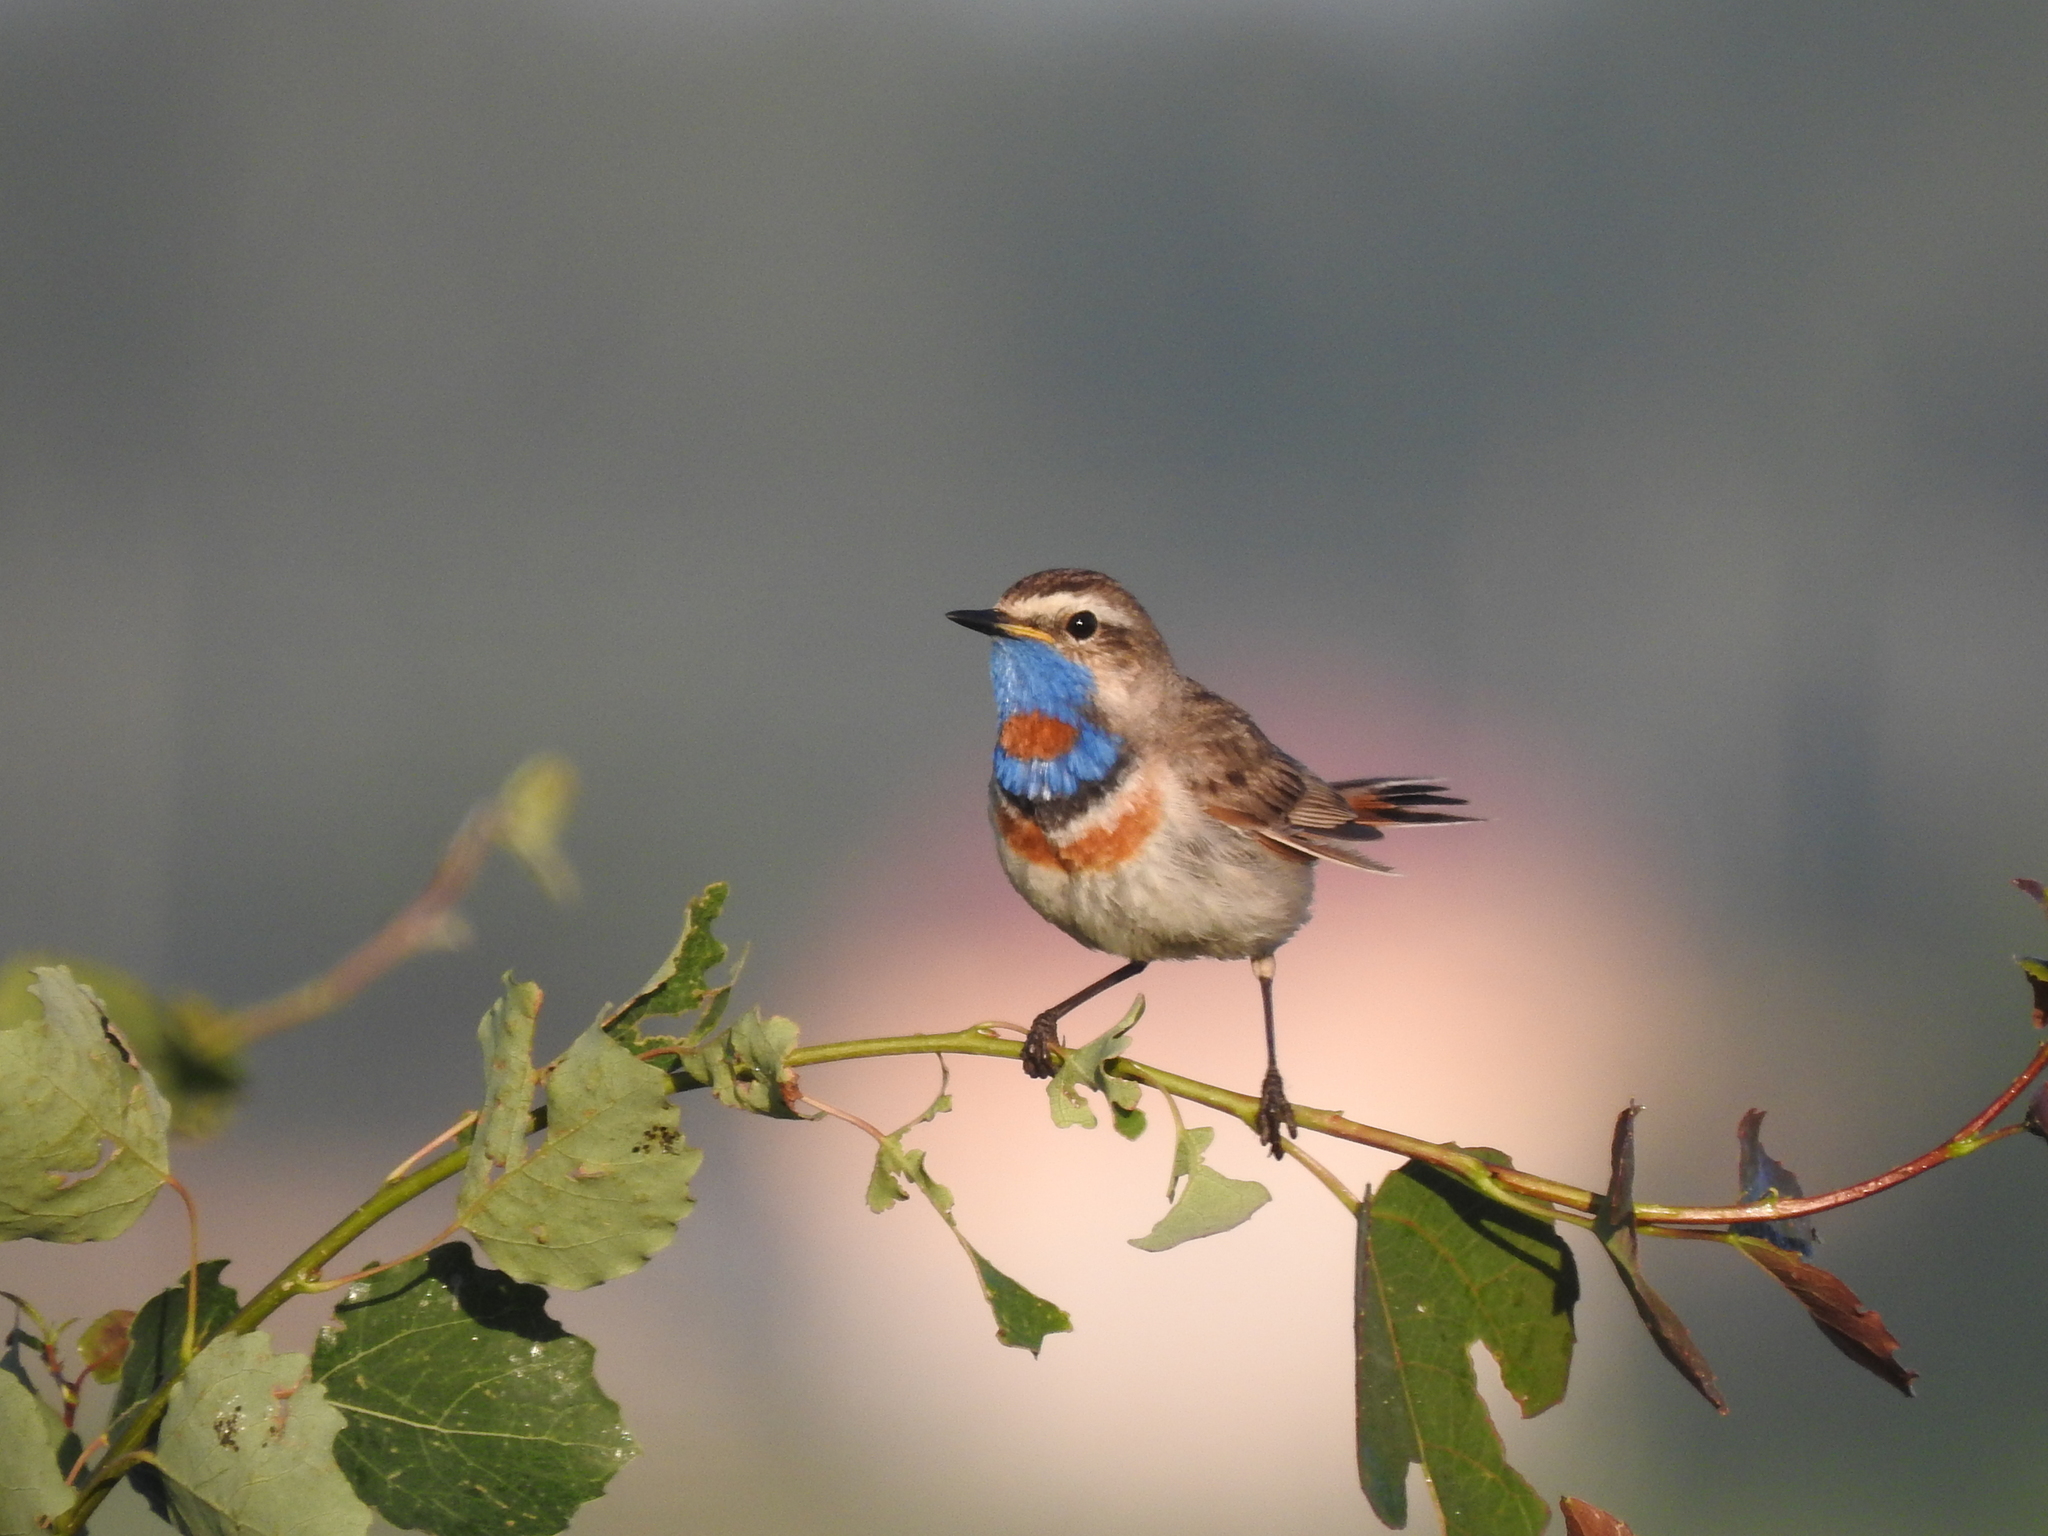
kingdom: Animalia
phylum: Chordata
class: Aves
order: Passeriformes
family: Muscicapidae
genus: Luscinia
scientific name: Luscinia svecica
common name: Bluethroat
